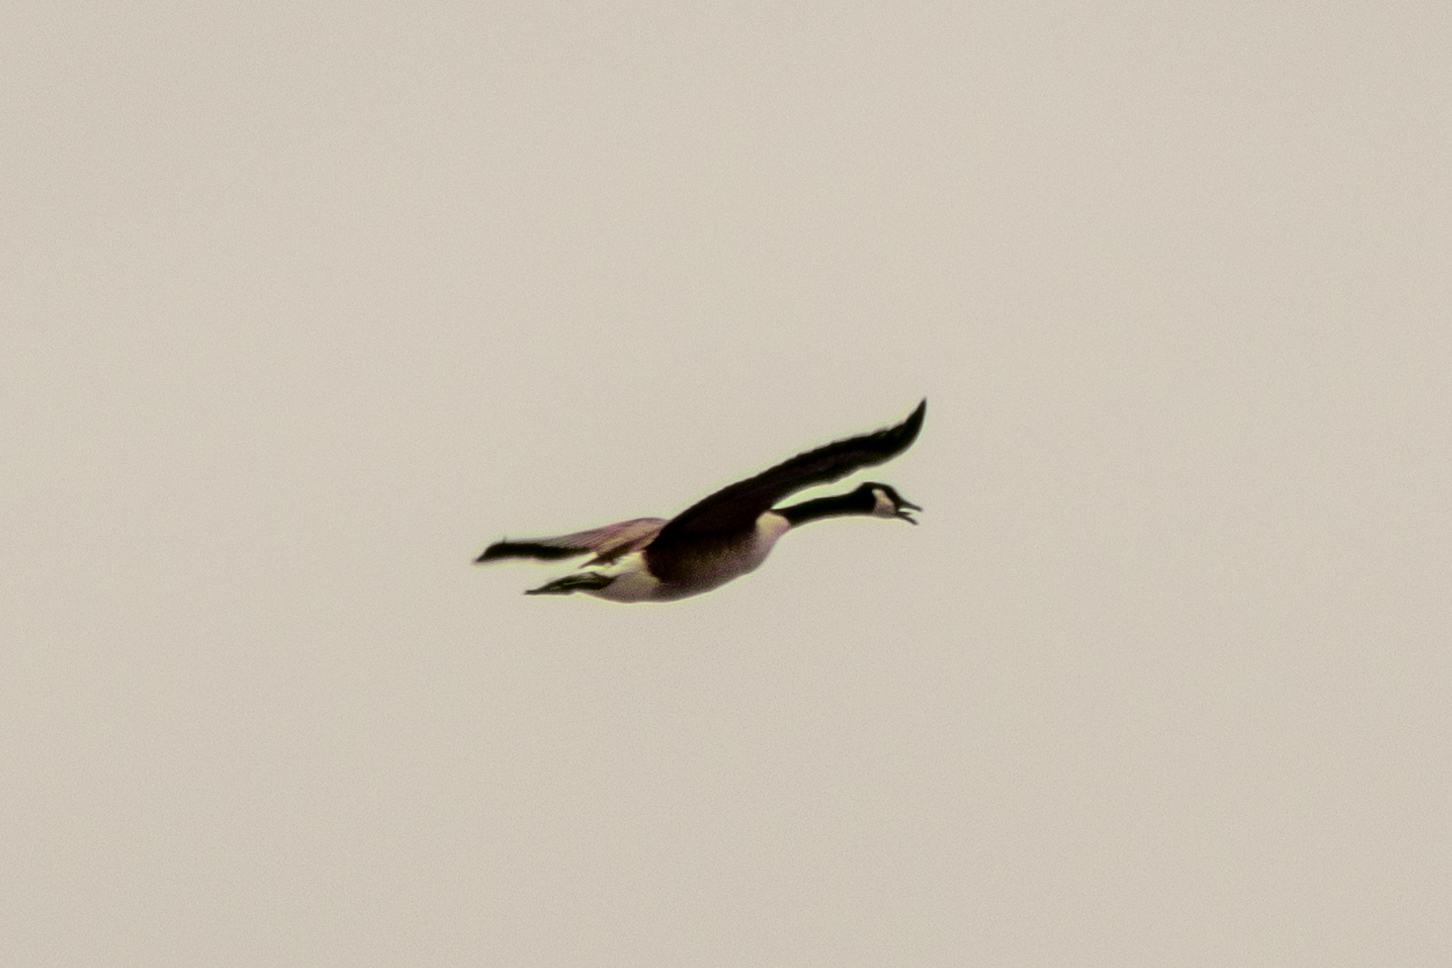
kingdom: Animalia
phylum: Chordata
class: Aves
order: Anseriformes
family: Anatidae
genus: Branta
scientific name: Branta canadensis
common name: Canada goose
